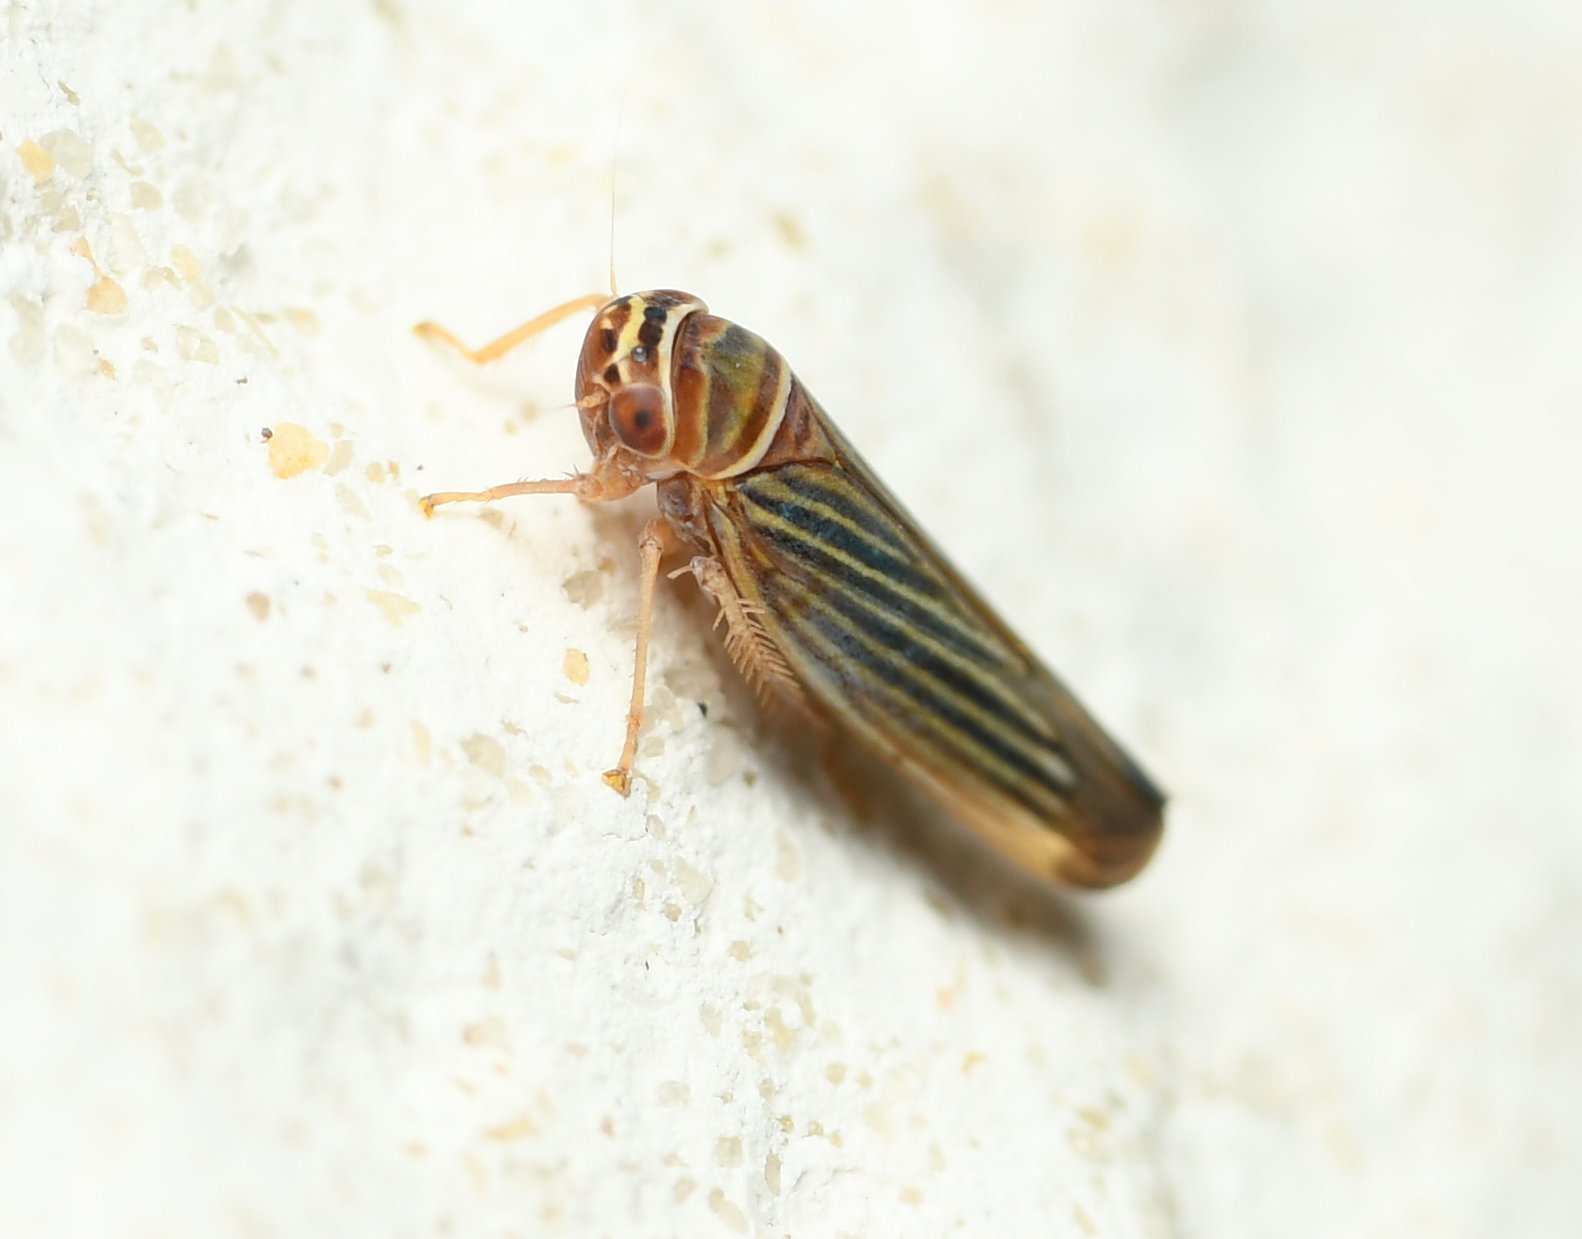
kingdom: Animalia
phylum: Arthropoda
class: Insecta
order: Hemiptera
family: Cicadellidae
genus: Tylozygus
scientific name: Tylozygus bifidus
